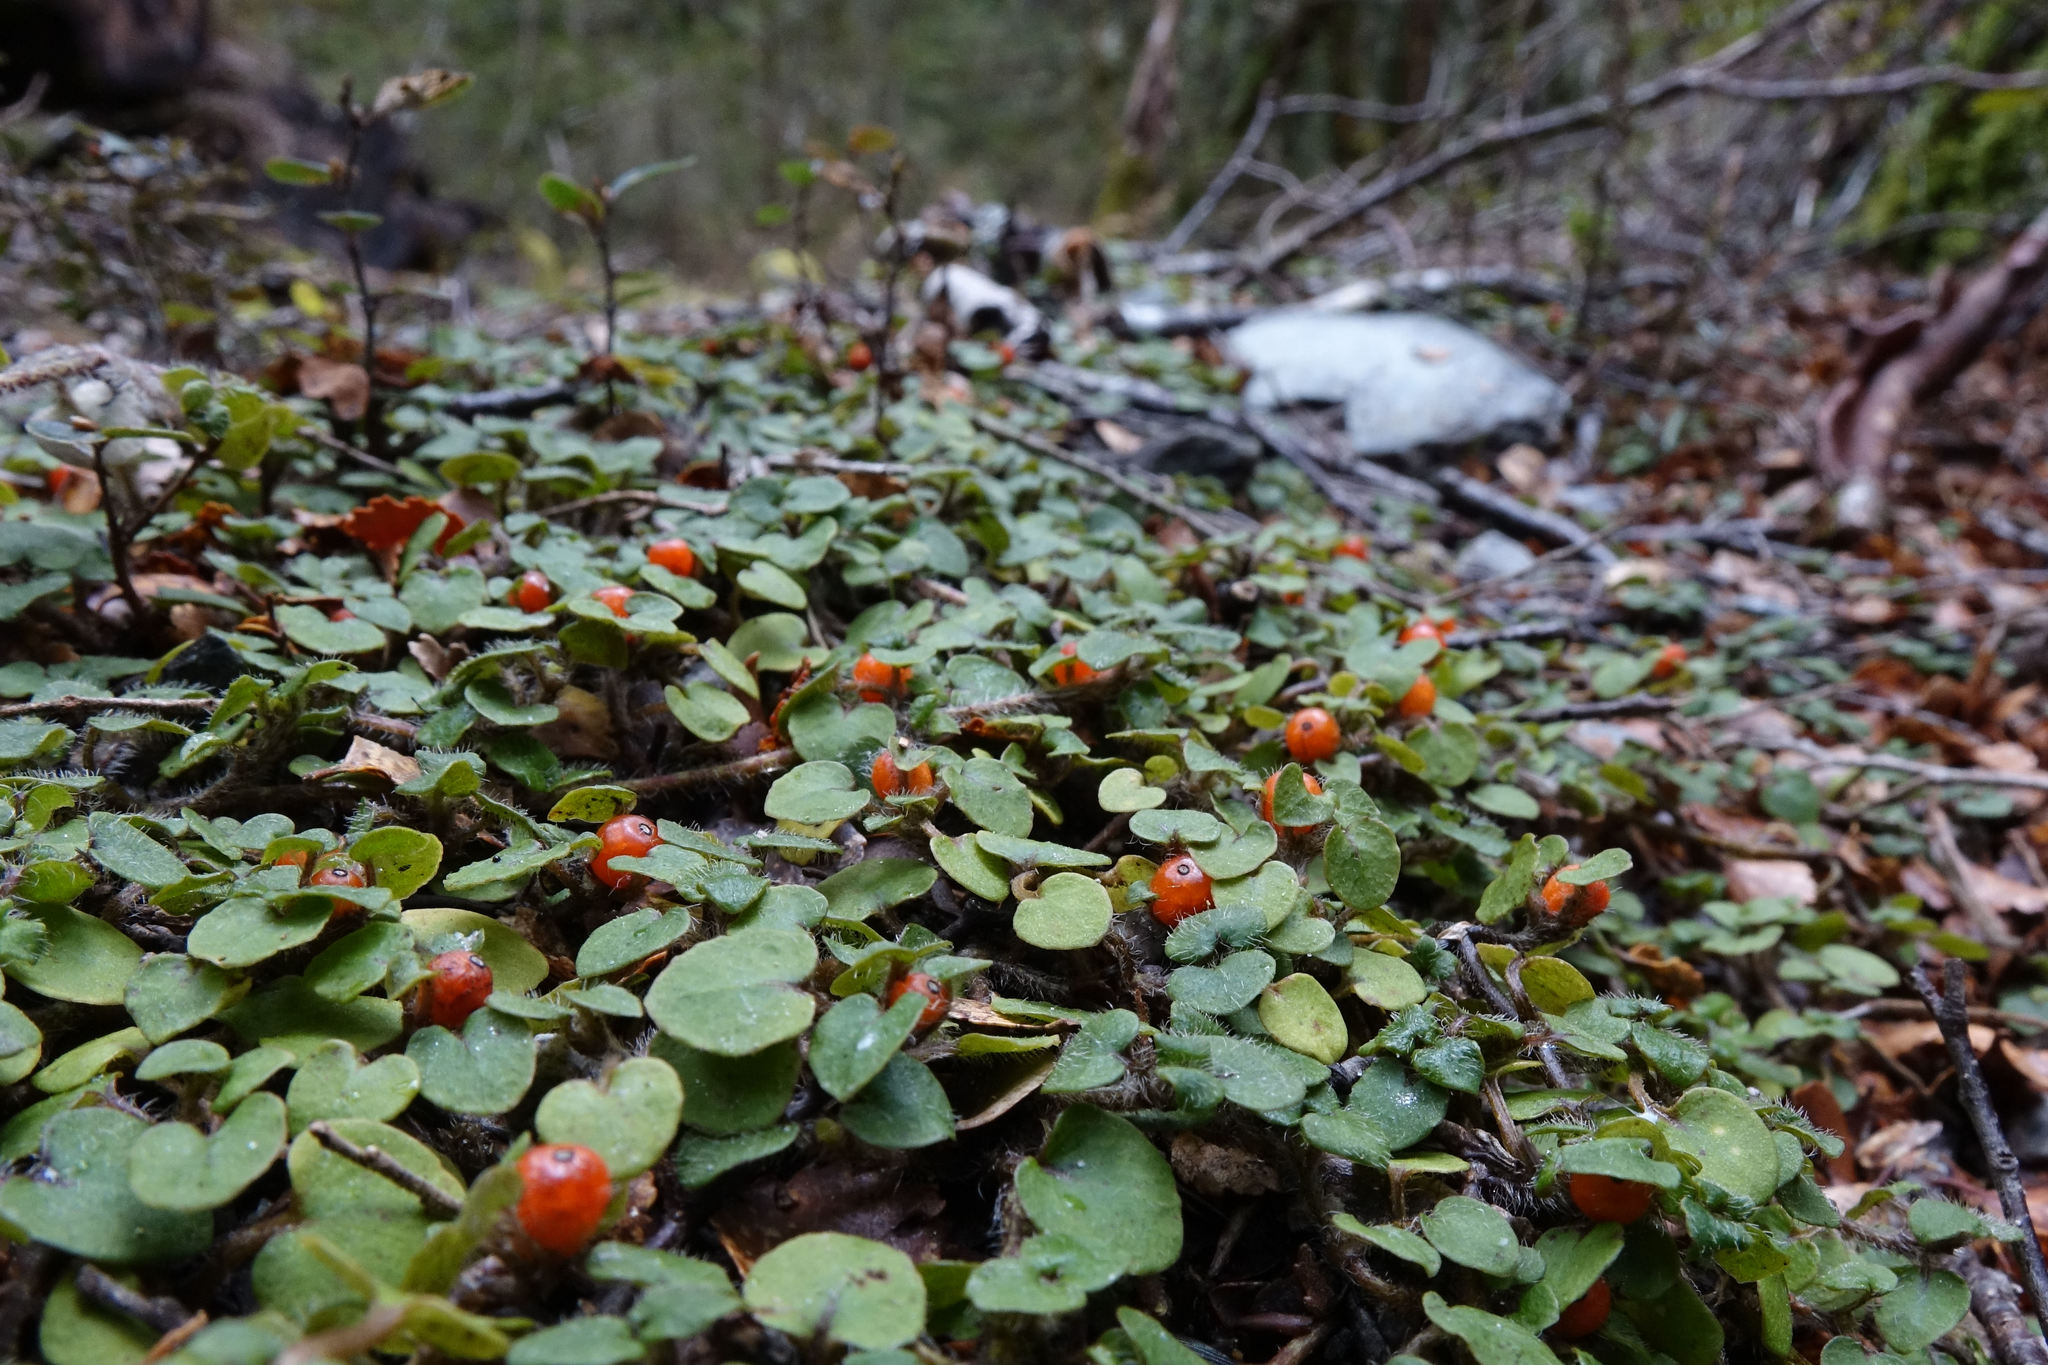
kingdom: Plantae
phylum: Tracheophyta
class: Magnoliopsida
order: Gentianales
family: Rubiaceae
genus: Nertera
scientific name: Nertera villosa
